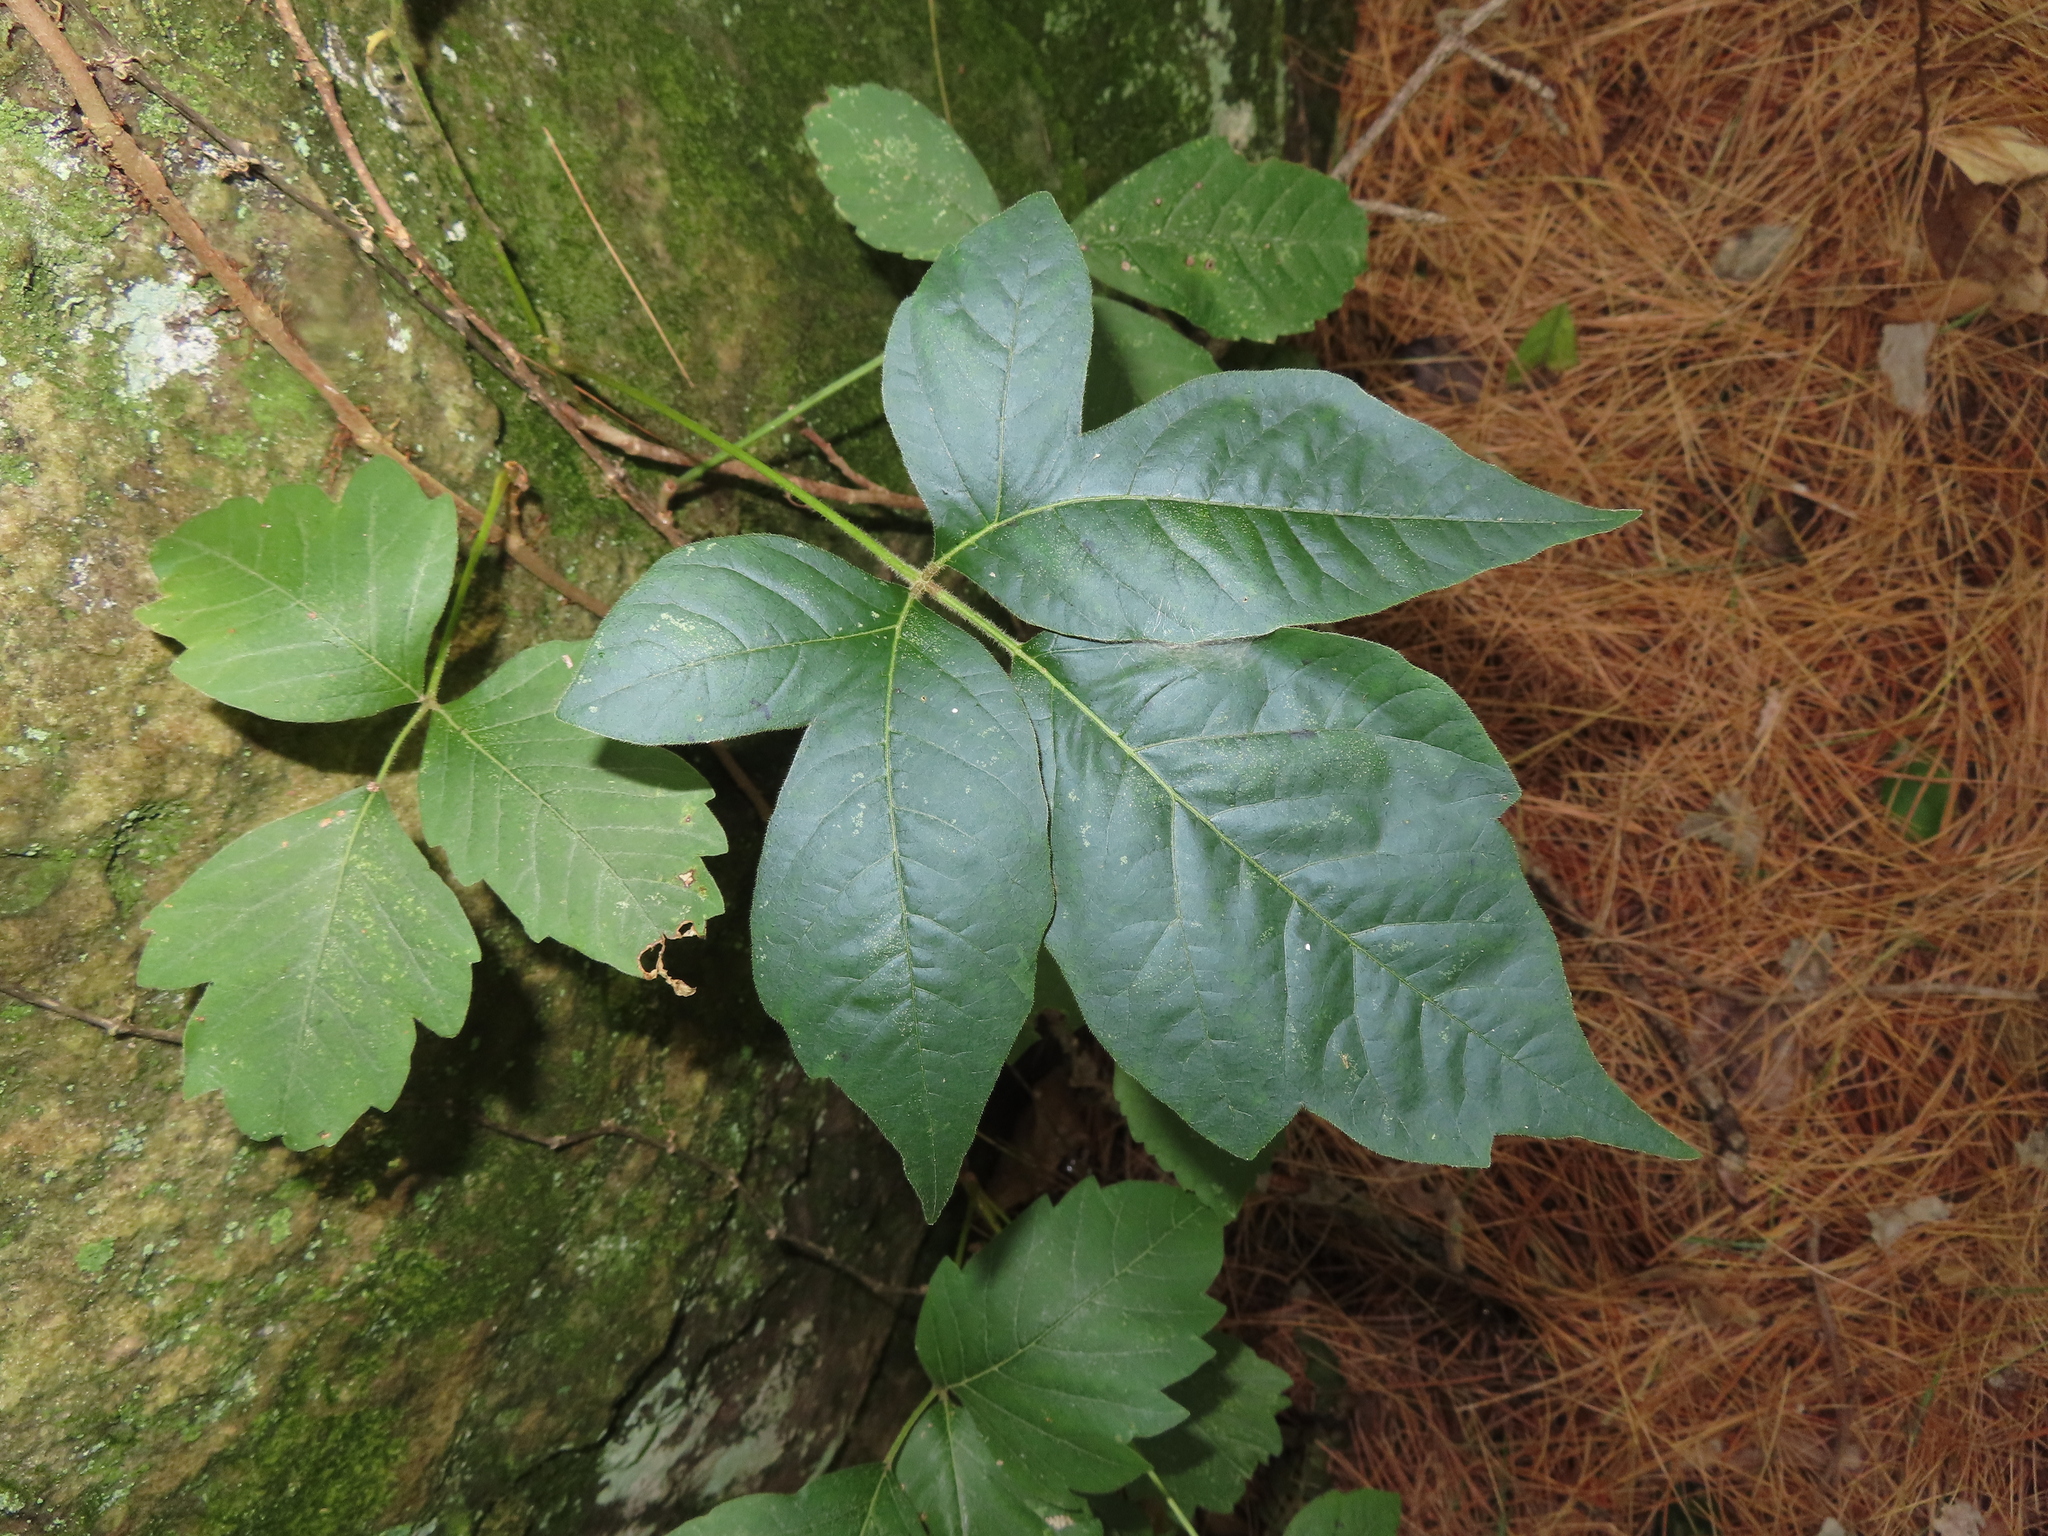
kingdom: Plantae
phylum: Tracheophyta
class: Magnoliopsida
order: Sapindales
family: Anacardiaceae
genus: Toxicodendron
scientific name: Toxicodendron radicans
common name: Poison ivy
